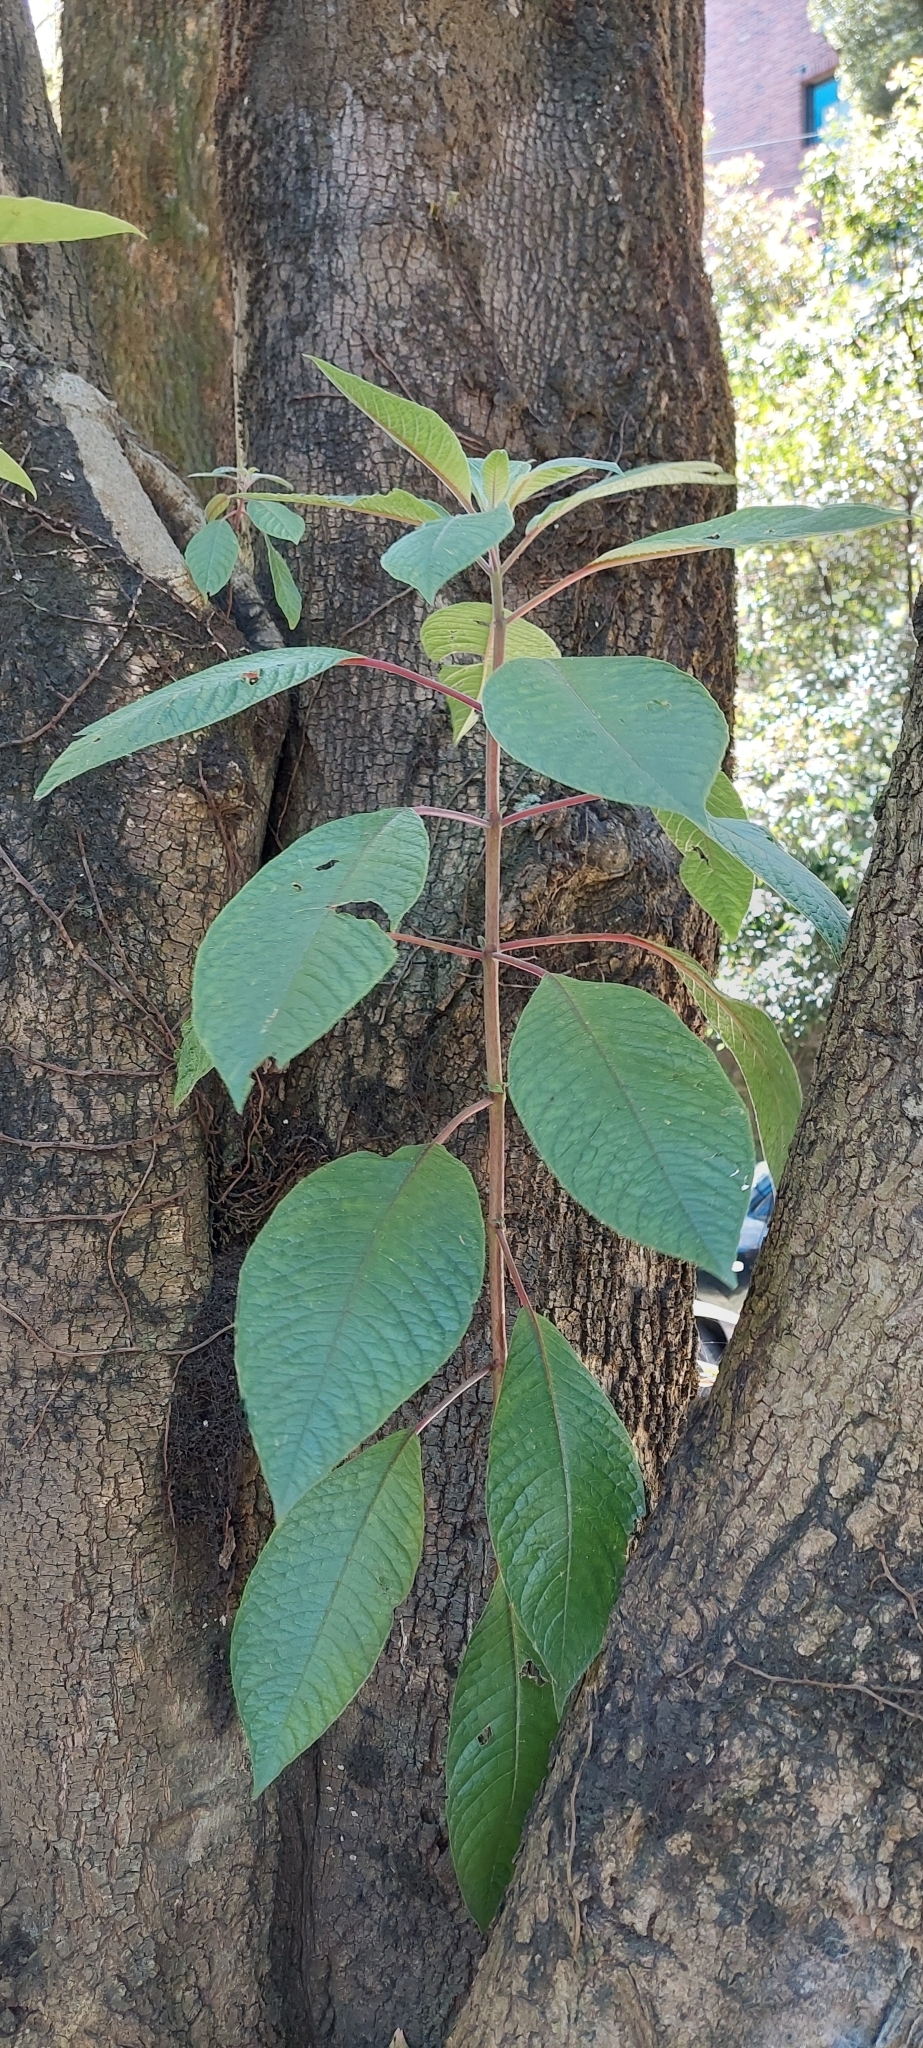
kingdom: Plantae
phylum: Tracheophyta
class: Magnoliopsida
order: Myrtales
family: Onagraceae
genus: Fuchsia
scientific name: Fuchsia boliviana
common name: Bolivian fuchsia
